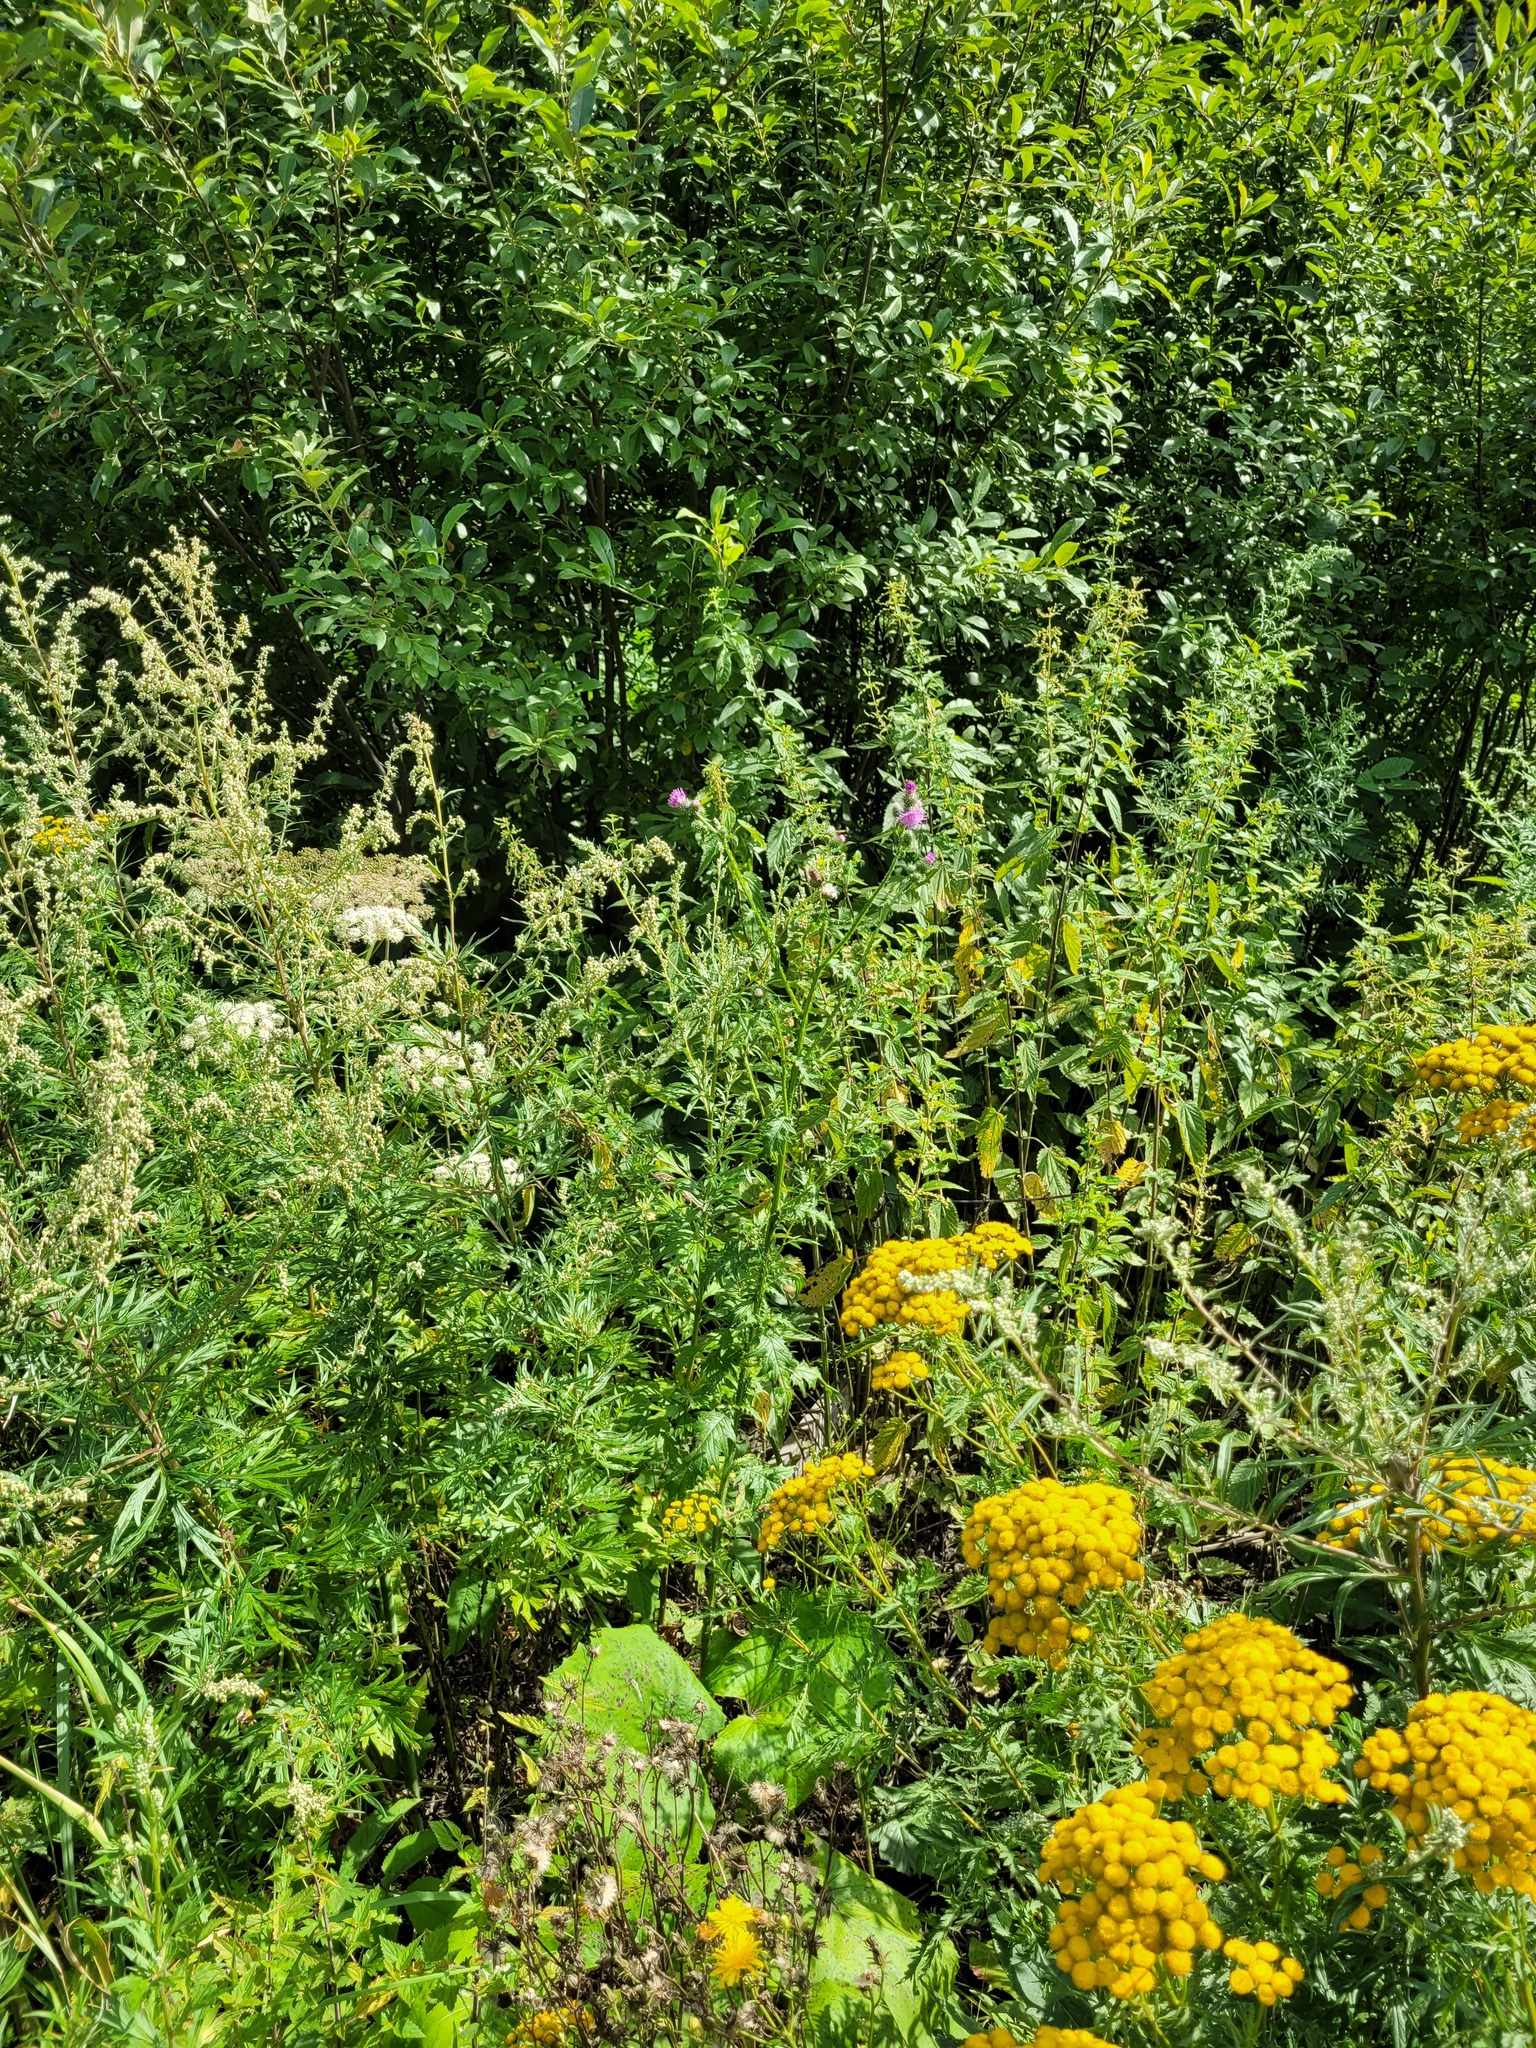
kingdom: Plantae
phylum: Tracheophyta
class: Magnoliopsida
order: Asterales
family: Asteraceae
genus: Carduus
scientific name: Carduus crispus
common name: Welted thistle
